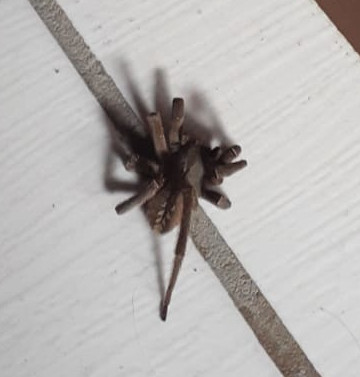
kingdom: Animalia
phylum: Arthropoda
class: Arachnida
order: Araneae
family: Ctenidae
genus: Phoneutria
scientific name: Phoneutria nigriventer
